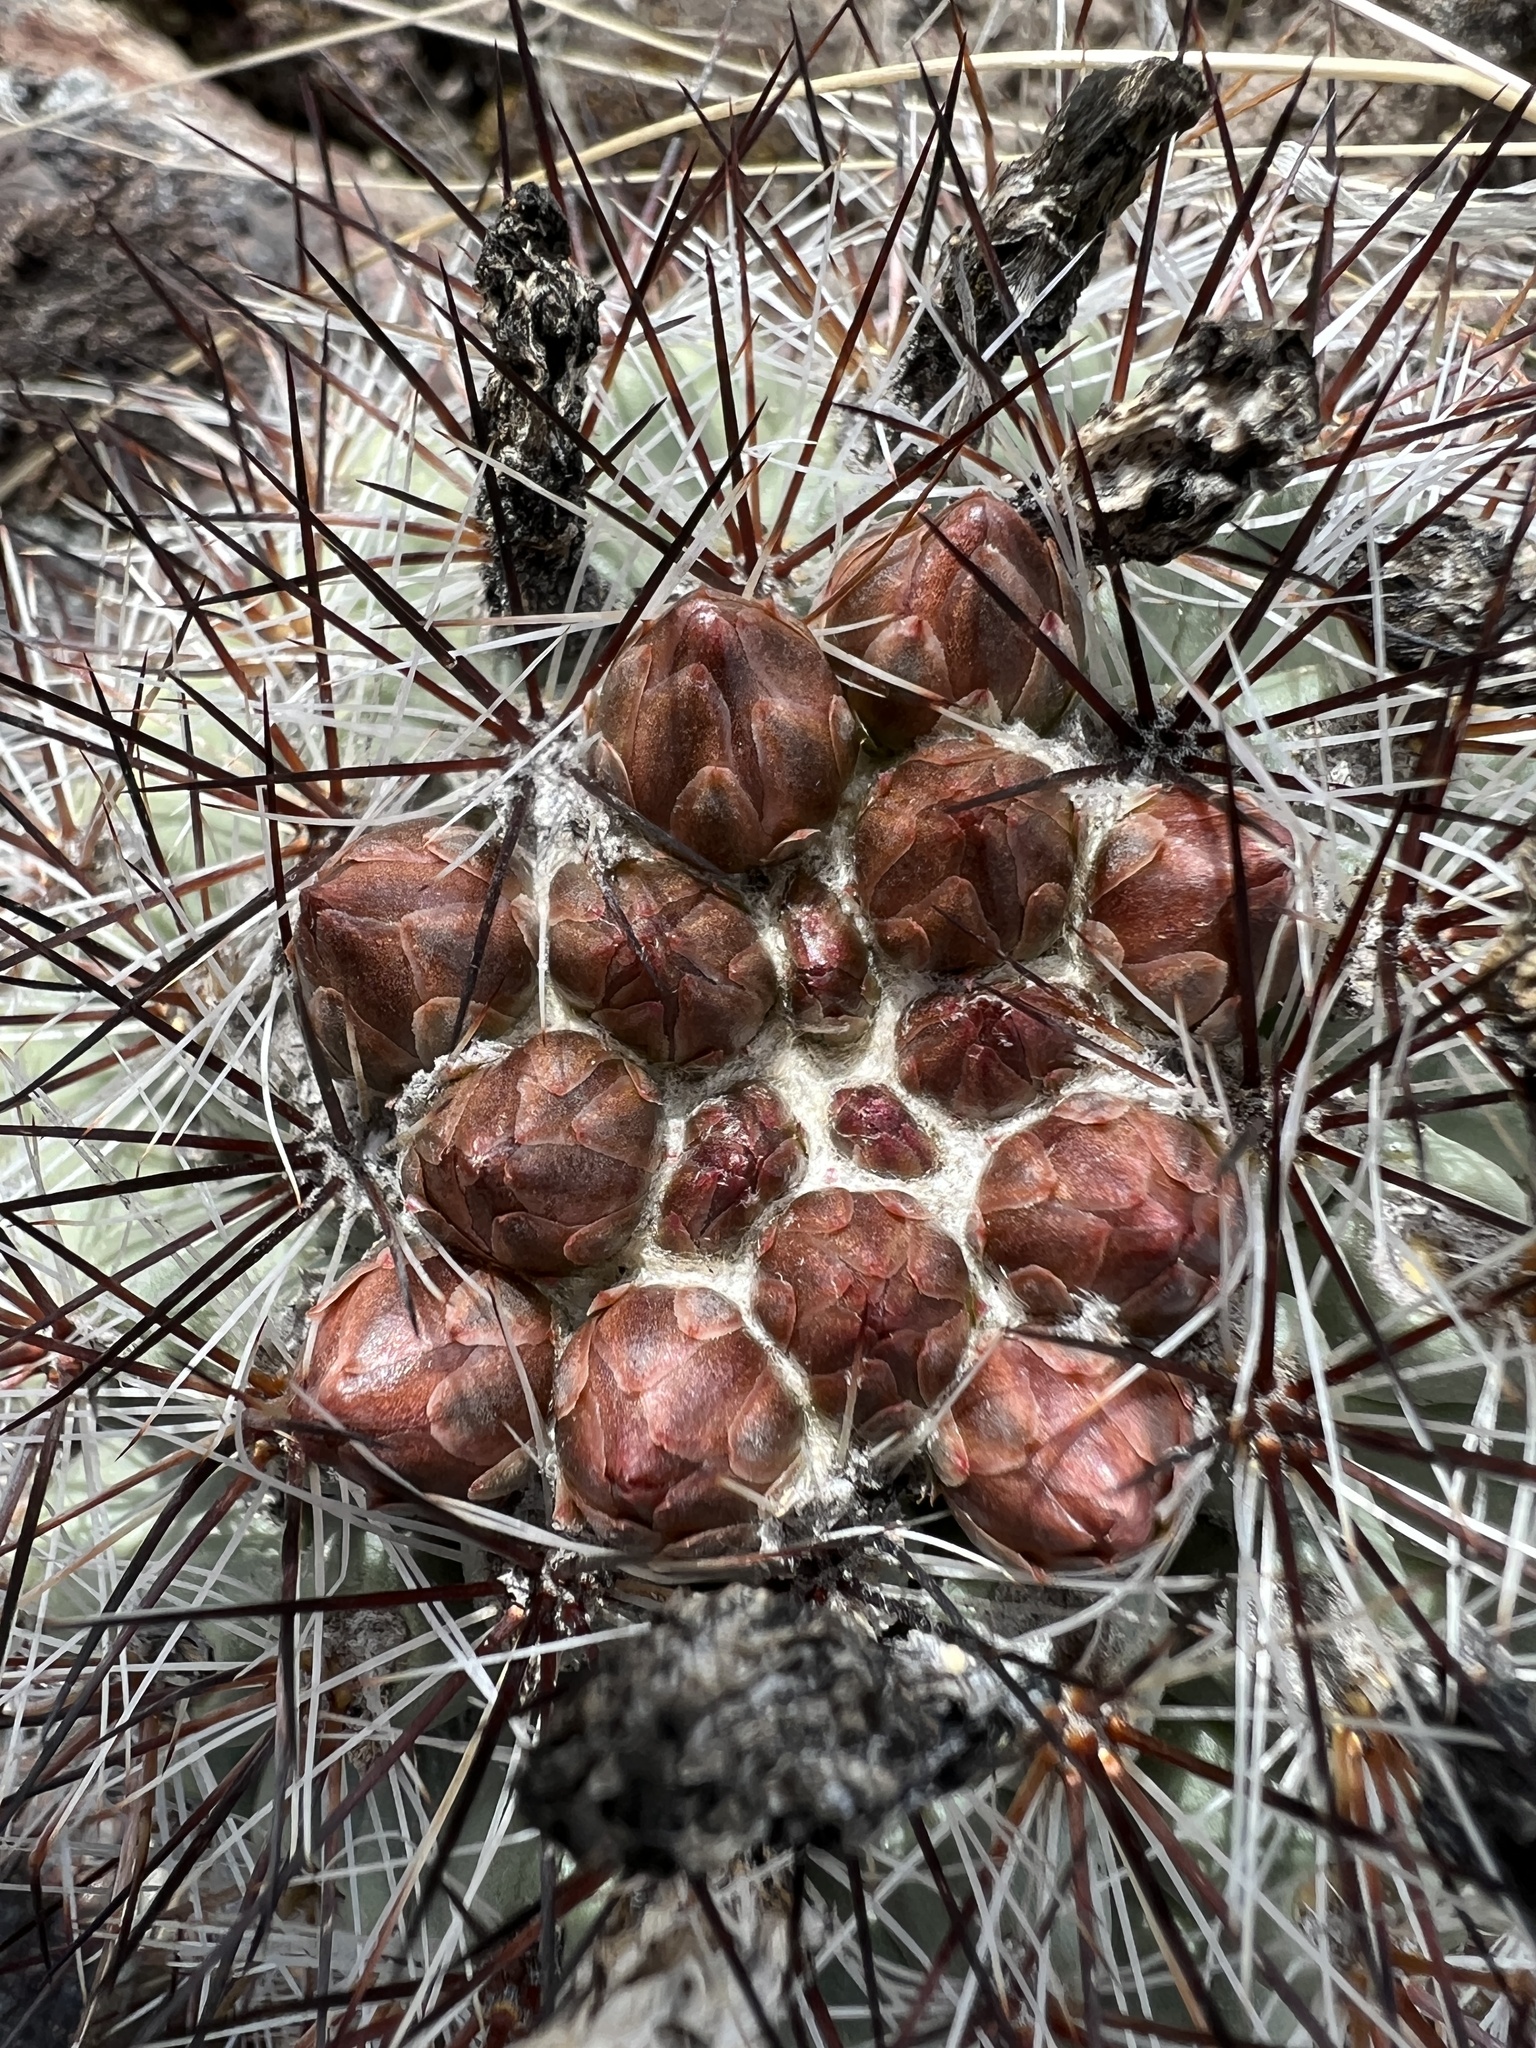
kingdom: Plantae
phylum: Tracheophyta
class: Magnoliopsida
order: Caryophyllales
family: Cactaceae
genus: Pediocactus
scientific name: Pediocactus nigrispinus
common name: Simpson's hedgehog cactus
